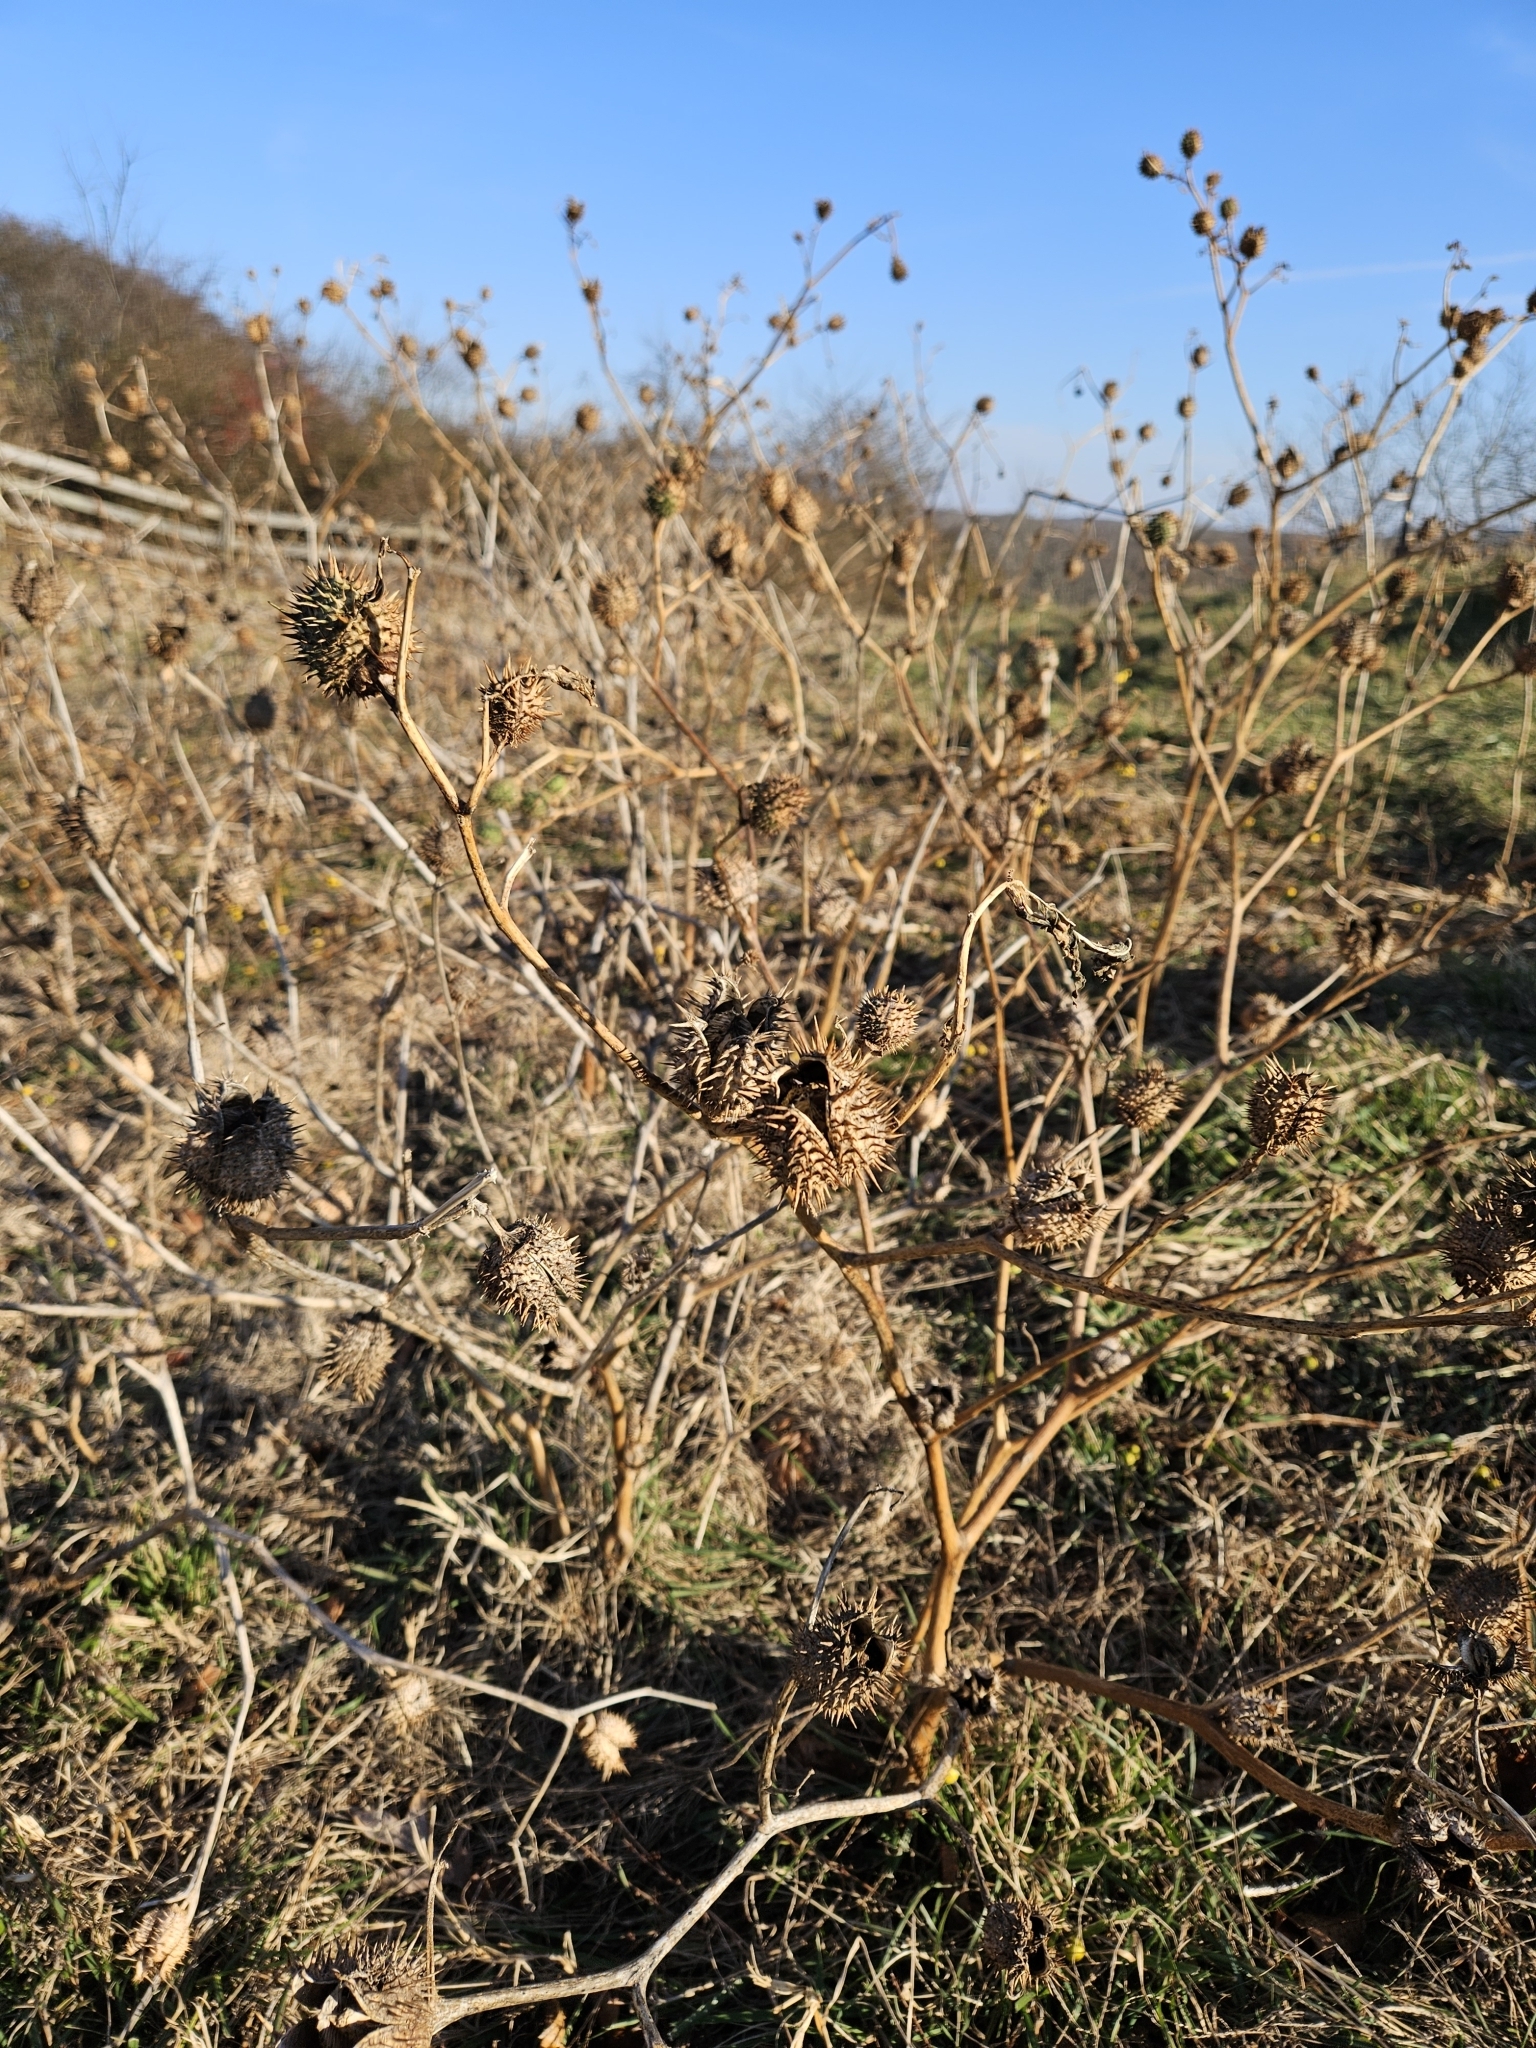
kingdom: Plantae
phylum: Tracheophyta
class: Magnoliopsida
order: Solanales
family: Solanaceae
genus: Datura
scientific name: Datura stramonium
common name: Thorn-apple
